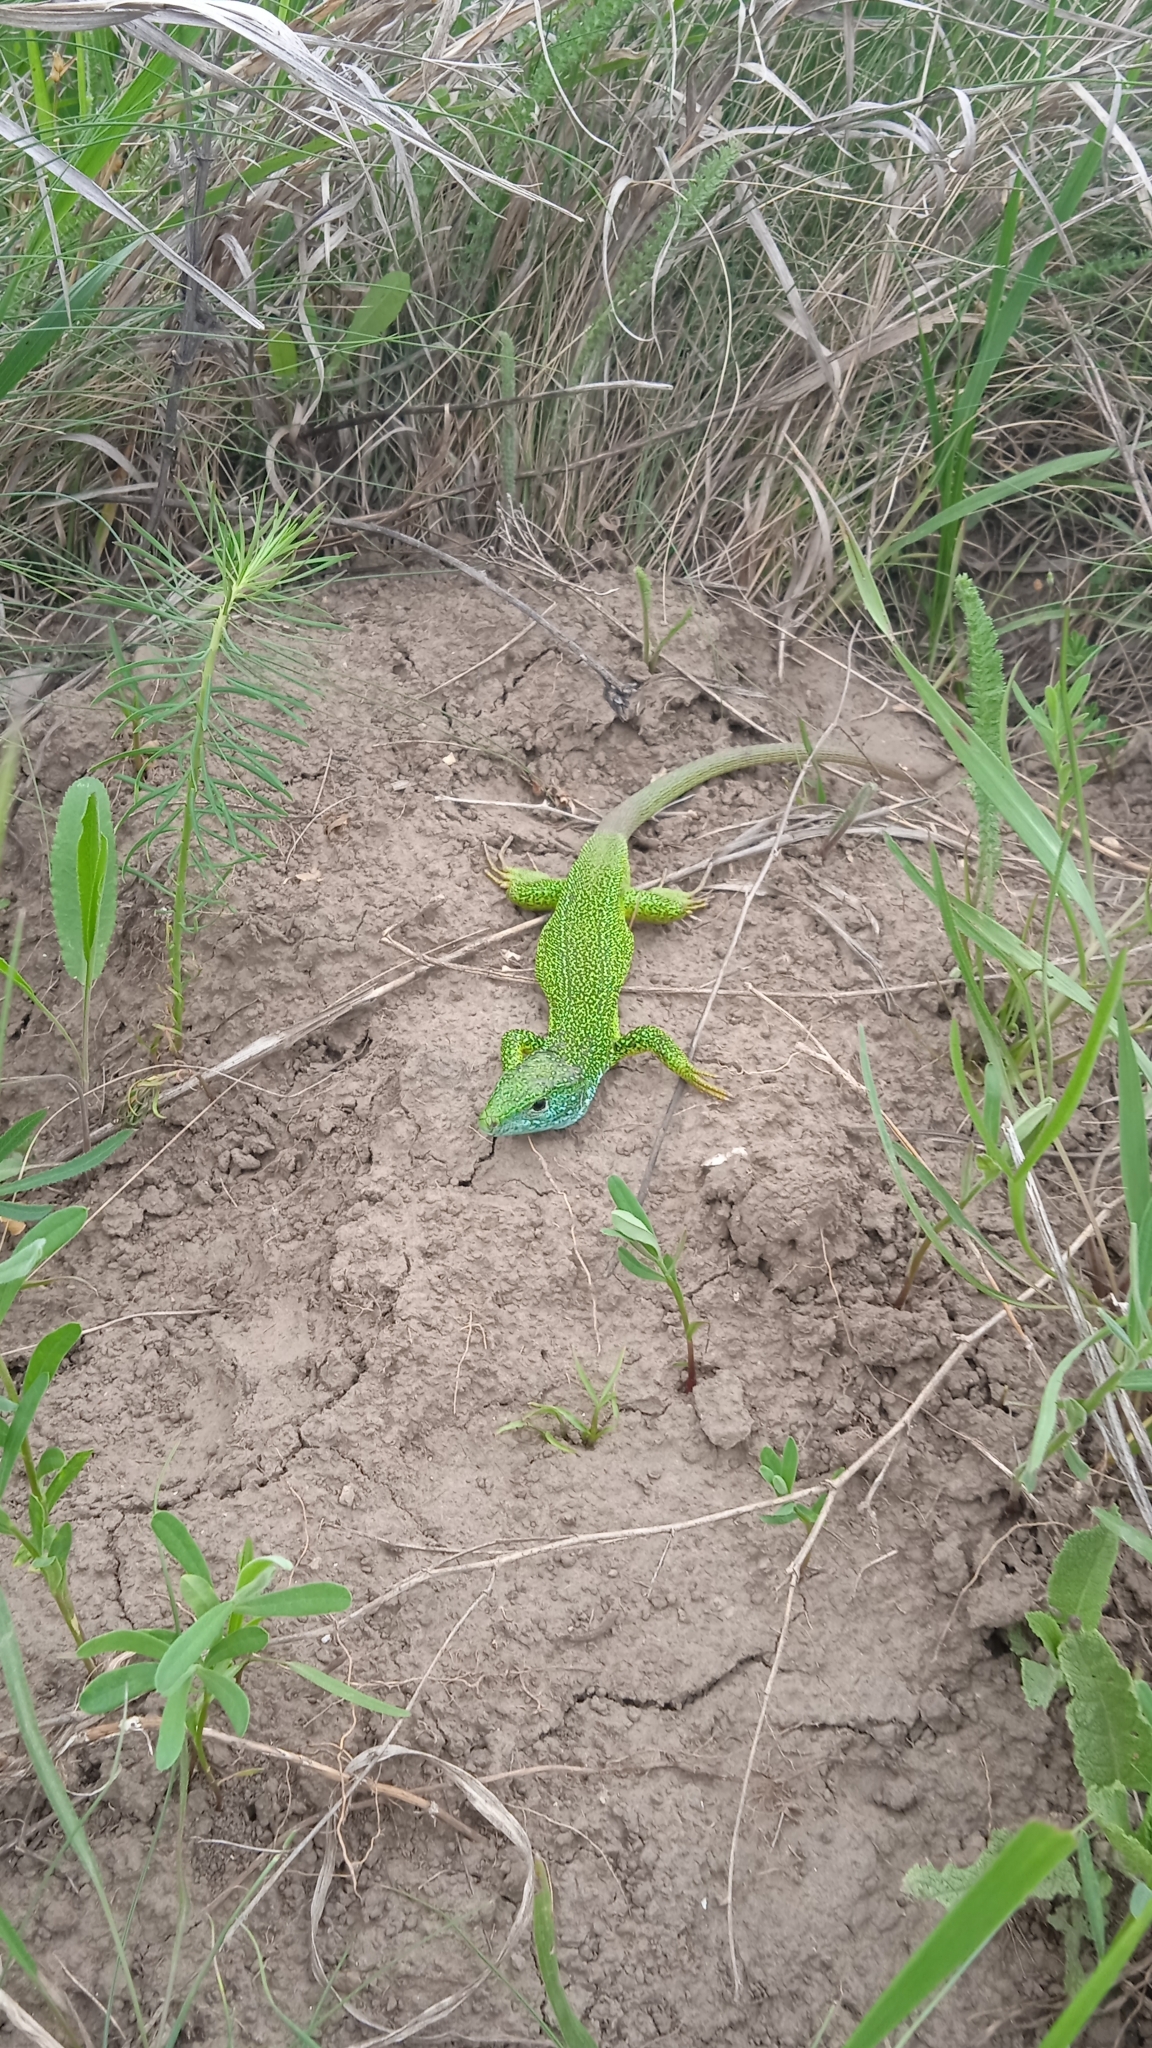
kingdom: Animalia
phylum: Chordata
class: Squamata
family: Lacertidae
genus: Lacerta
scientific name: Lacerta viridis
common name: European green lizard
